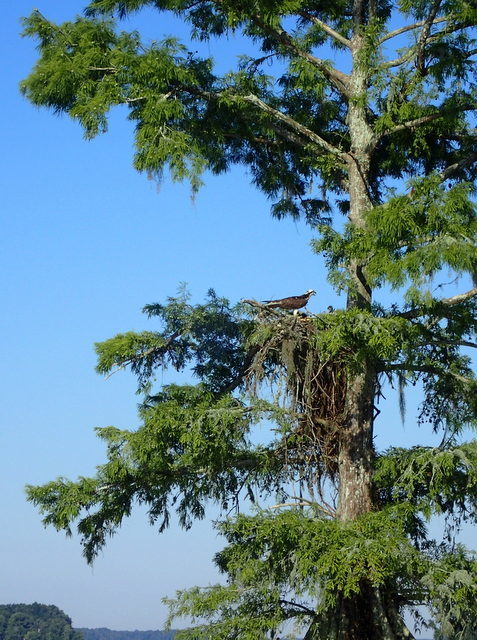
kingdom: Animalia
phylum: Chordata
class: Aves
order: Accipitriformes
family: Pandionidae
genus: Pandion
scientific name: Pandion haliaetus
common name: Osprey
